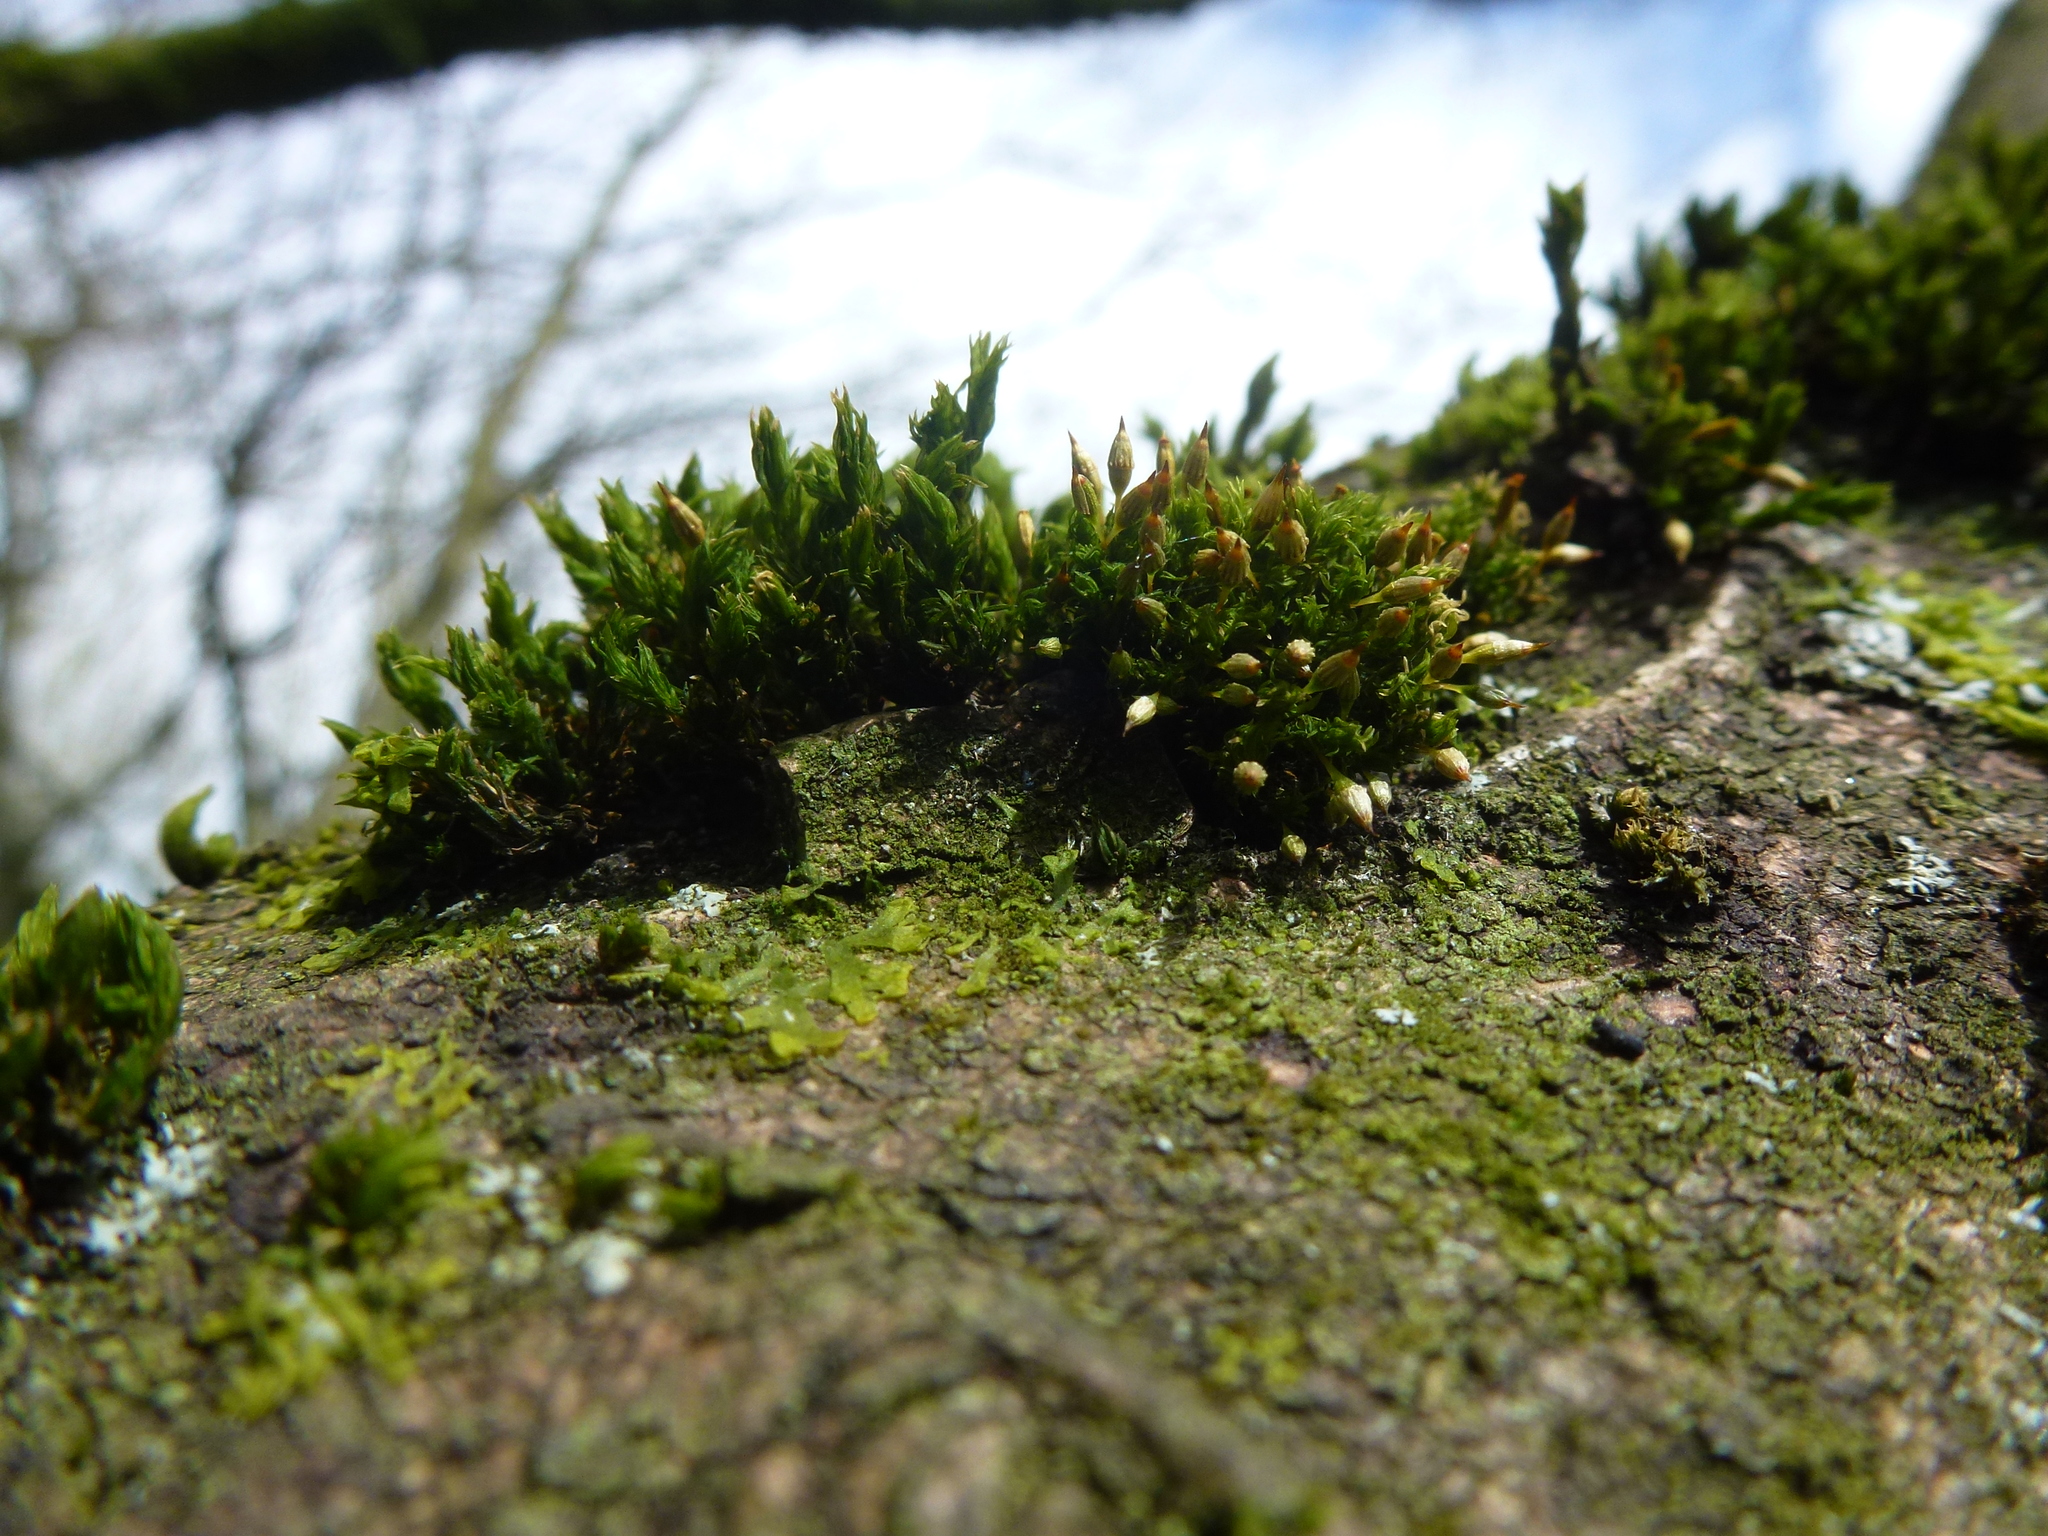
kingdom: Plantae
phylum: Bryophyta
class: Bryopsida
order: Orthotrichales
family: Orthotrichaceae
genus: Orthotrichum
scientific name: Orthotrichum pulchellum
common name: Elegant bristle-moss
